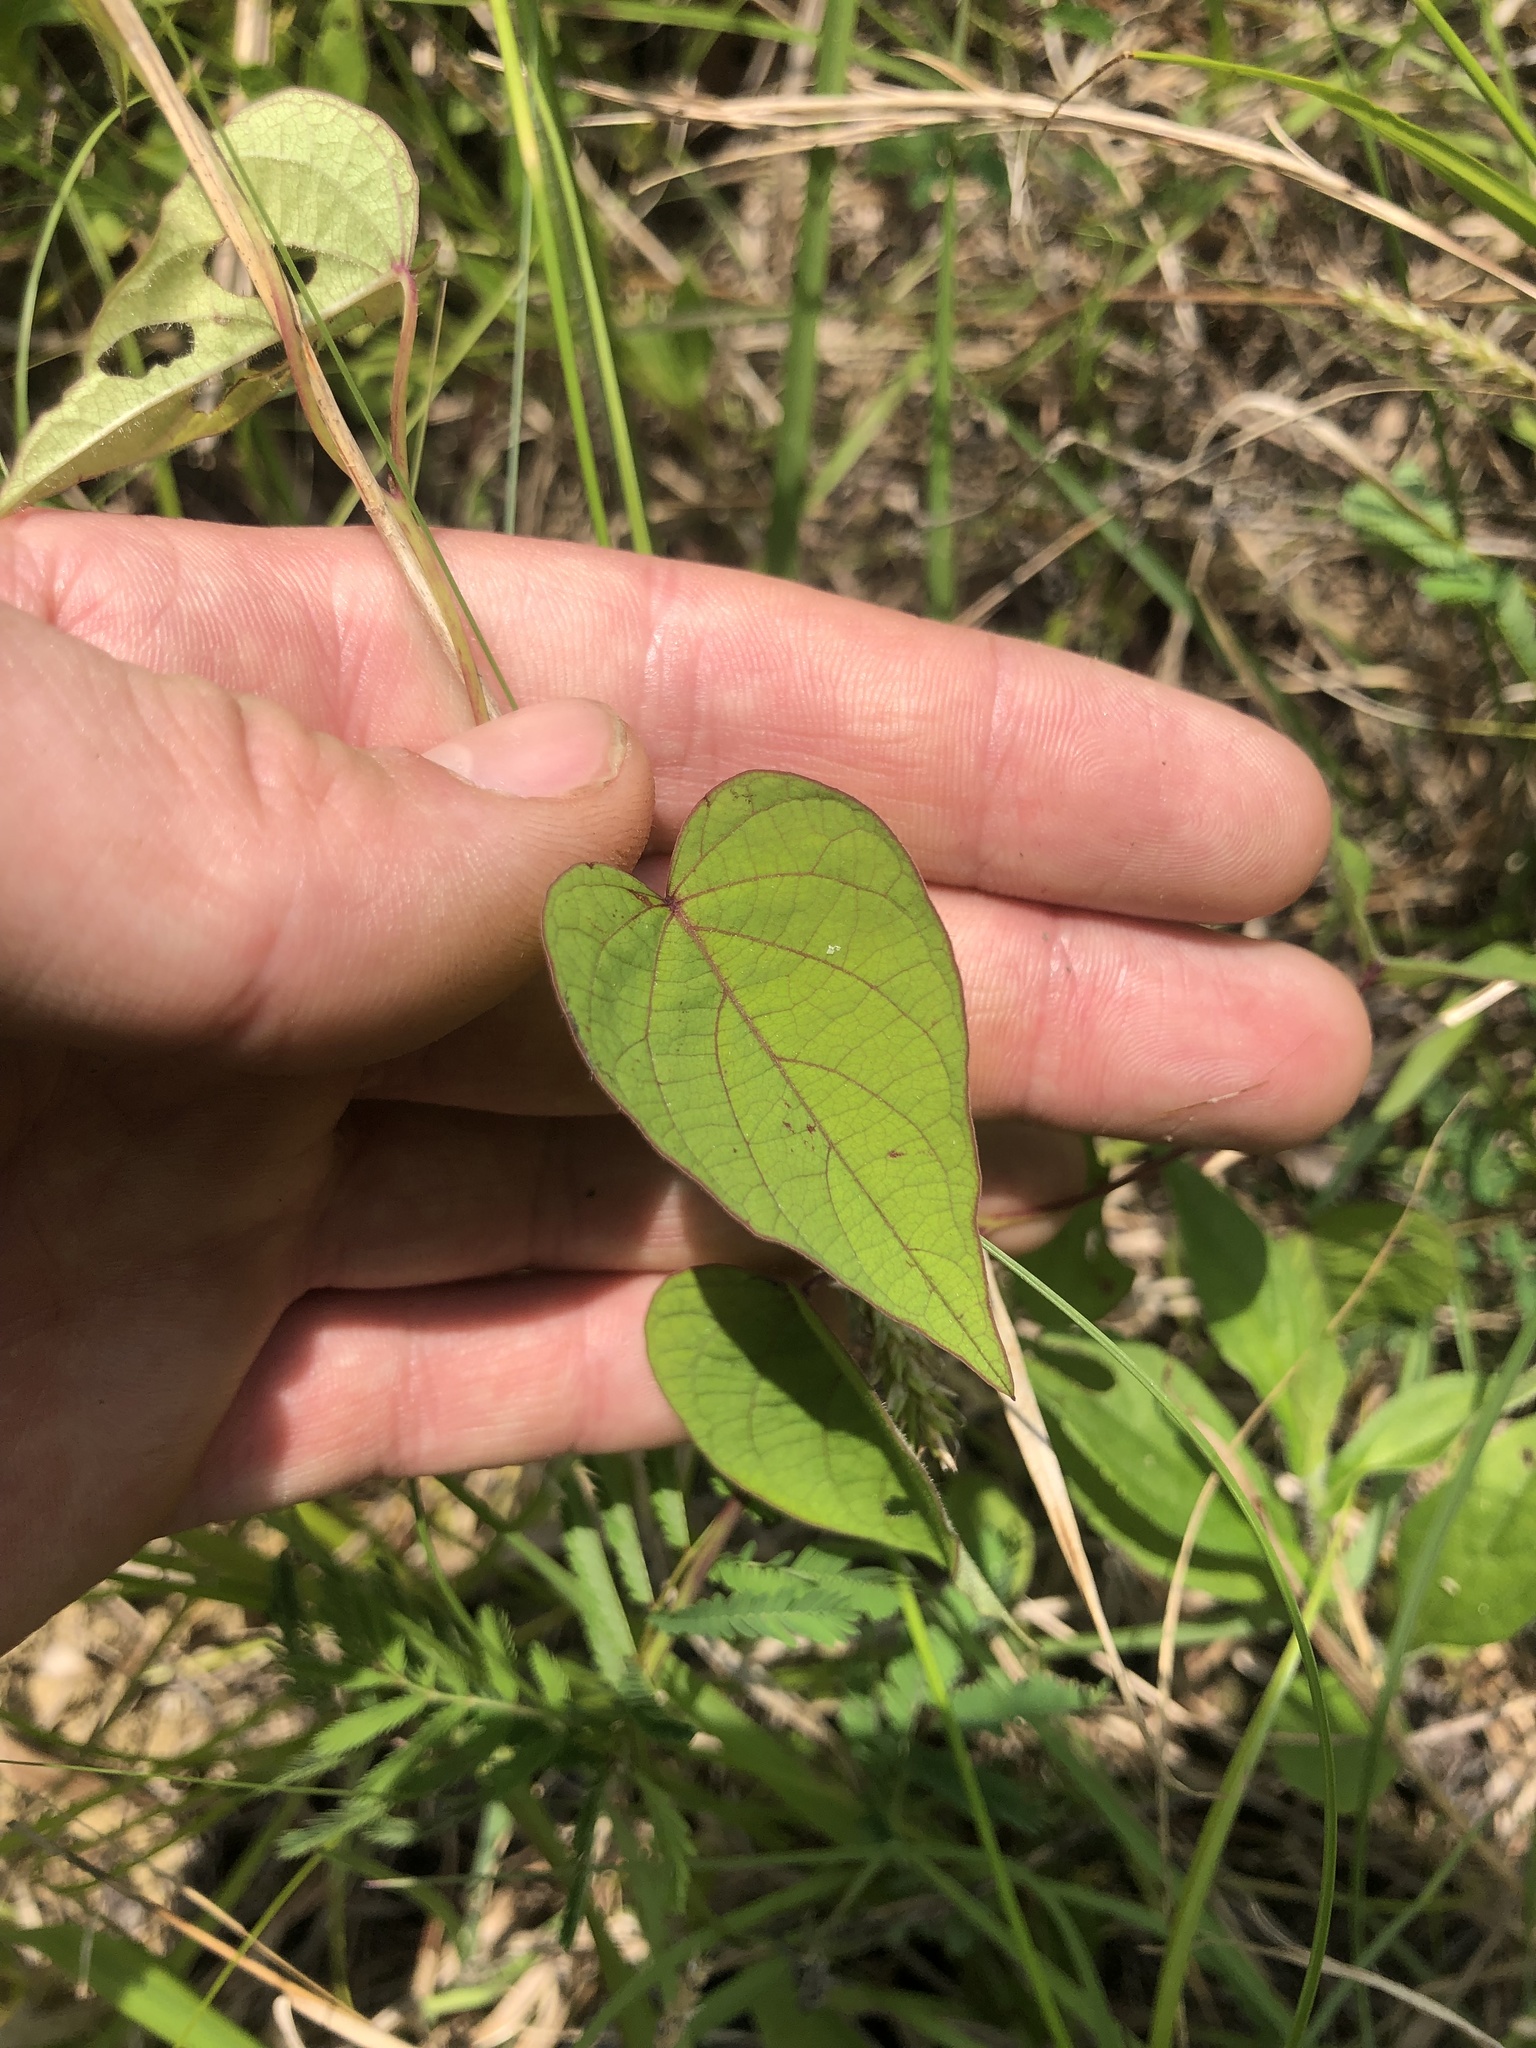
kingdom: Plantae
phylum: Tracheophyta
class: Magnoliopsida
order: Solanales
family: Convolvulaceae
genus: Ipomoea
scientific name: Ipomoea pandurata
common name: Man-of-the-earth
